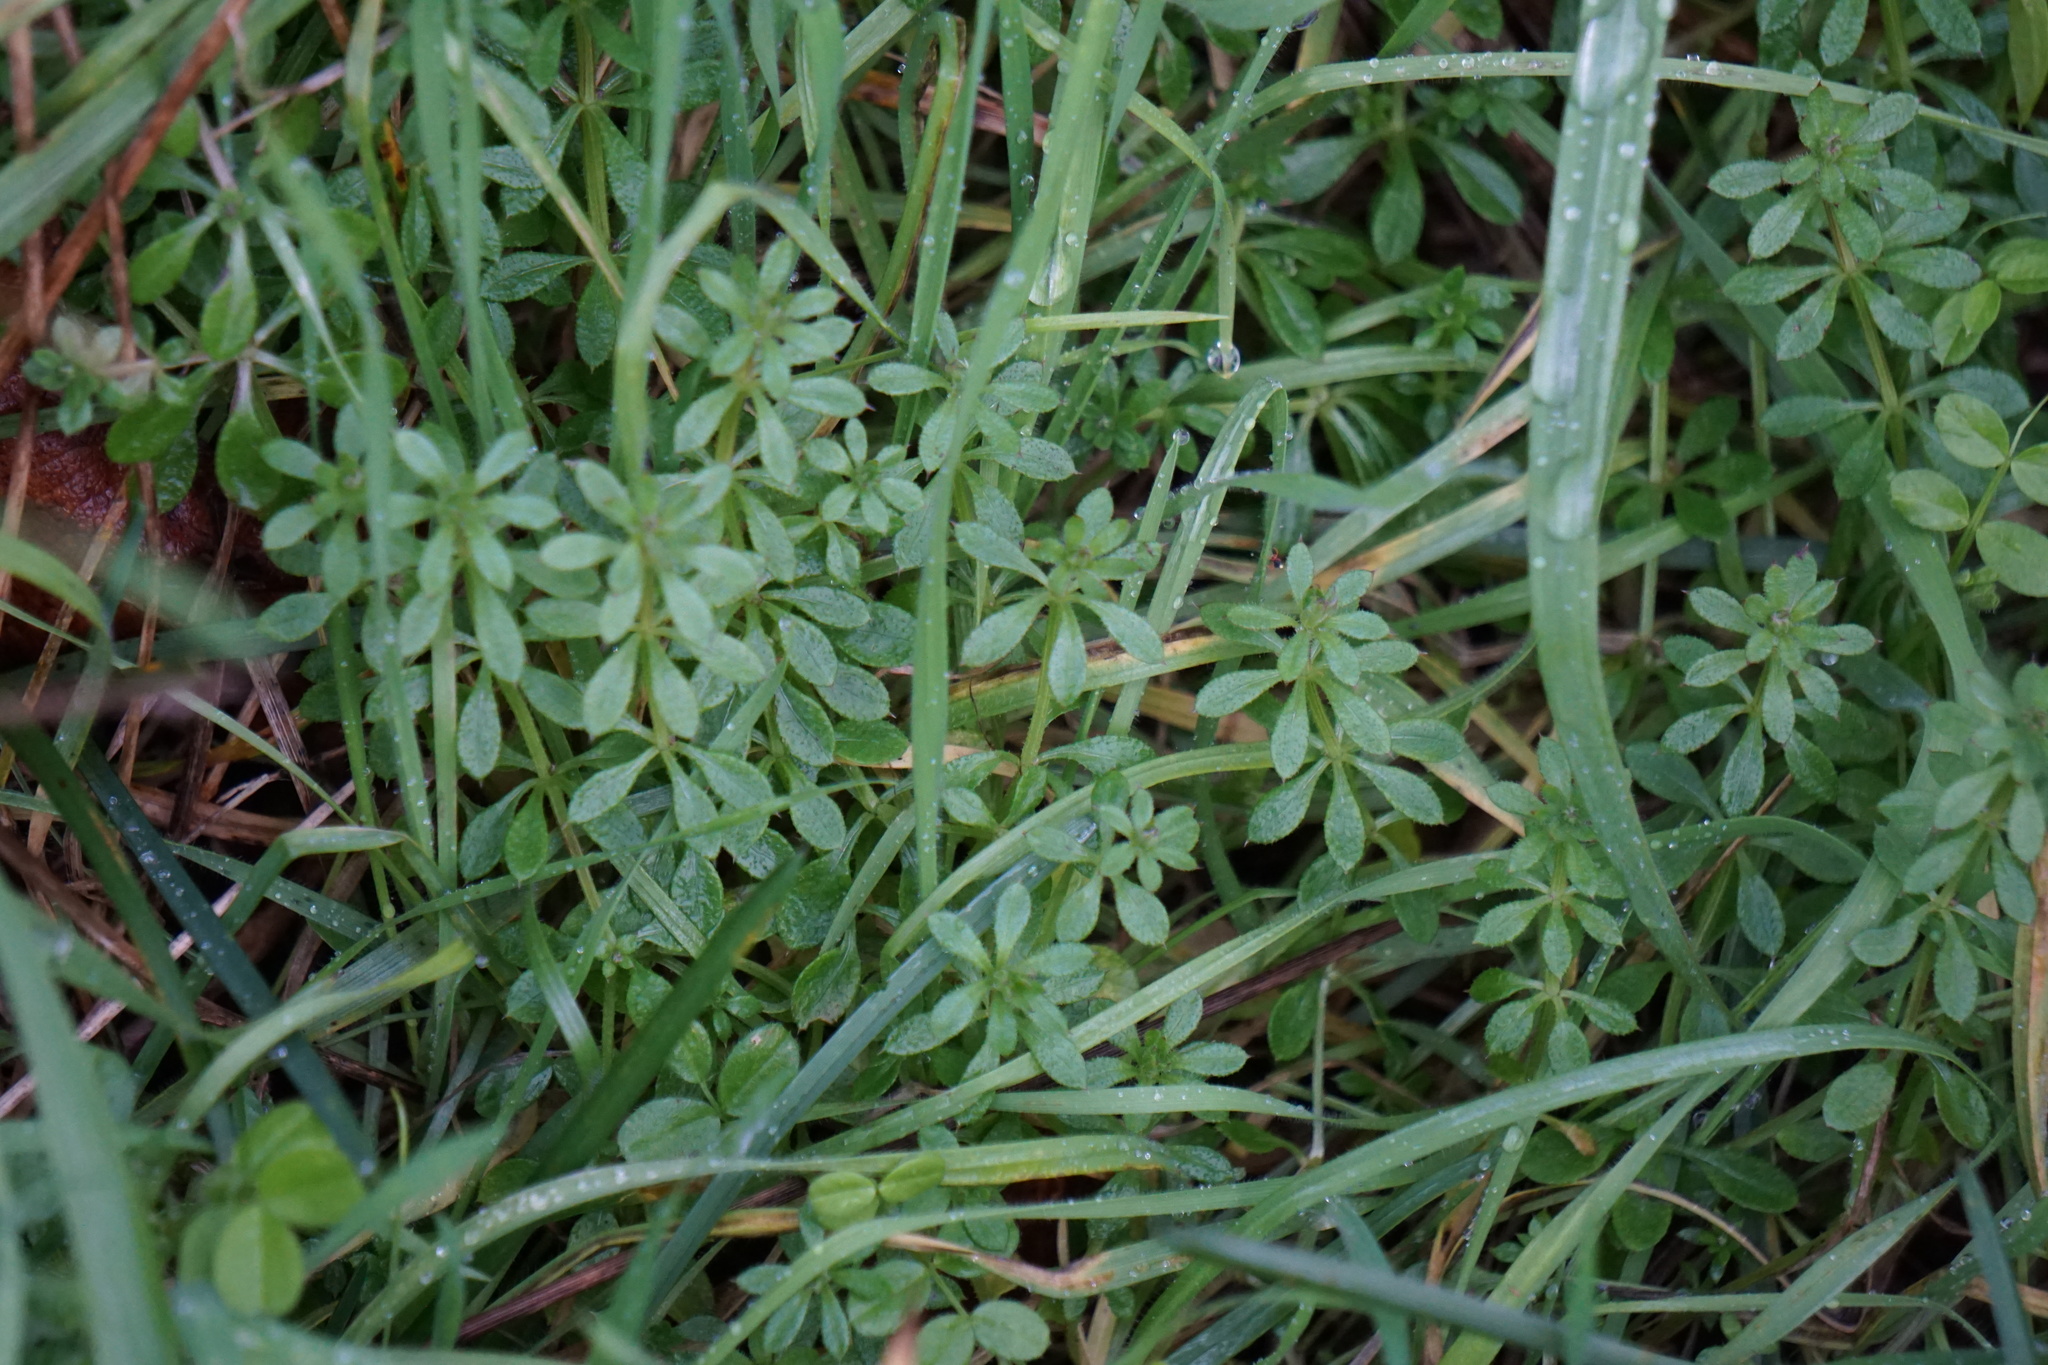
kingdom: Plantae
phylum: Tracheophyta
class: Magnoliopsida
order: Gentianales
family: Rubiaceae
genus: Galium
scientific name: Galium aparine
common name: Cleavers
